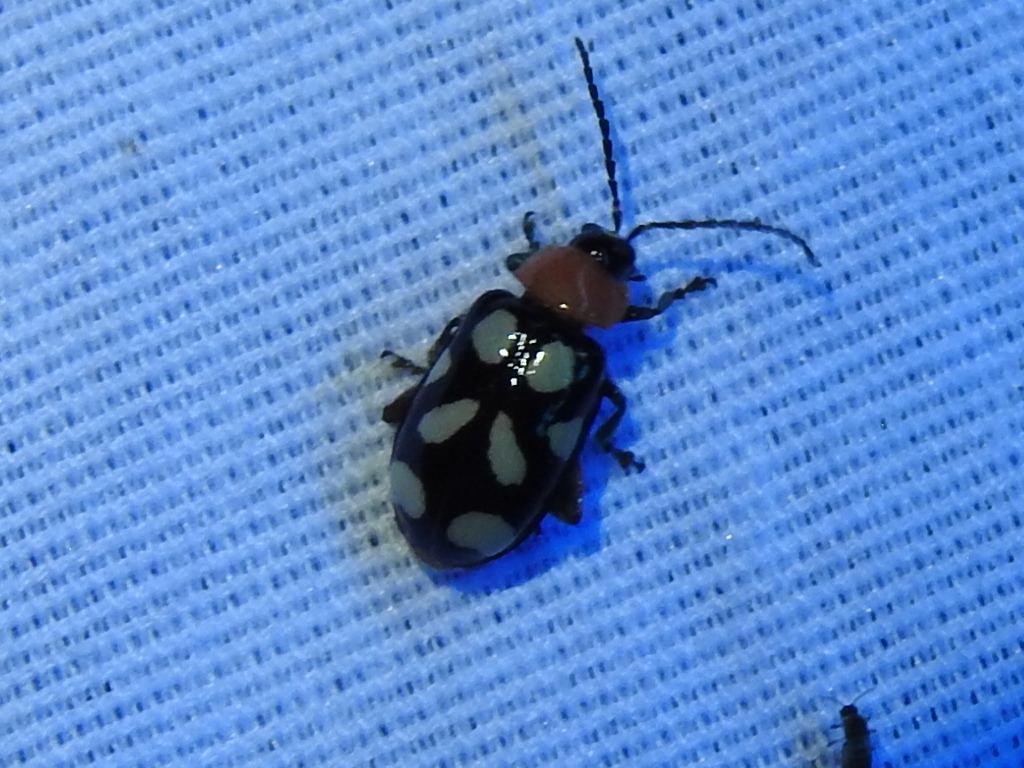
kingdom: Animalia
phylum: Arthropoda
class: Insecta
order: Coleoptera
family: Chrysomelidae
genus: Omophoita
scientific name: Omophoita cyanipennis
